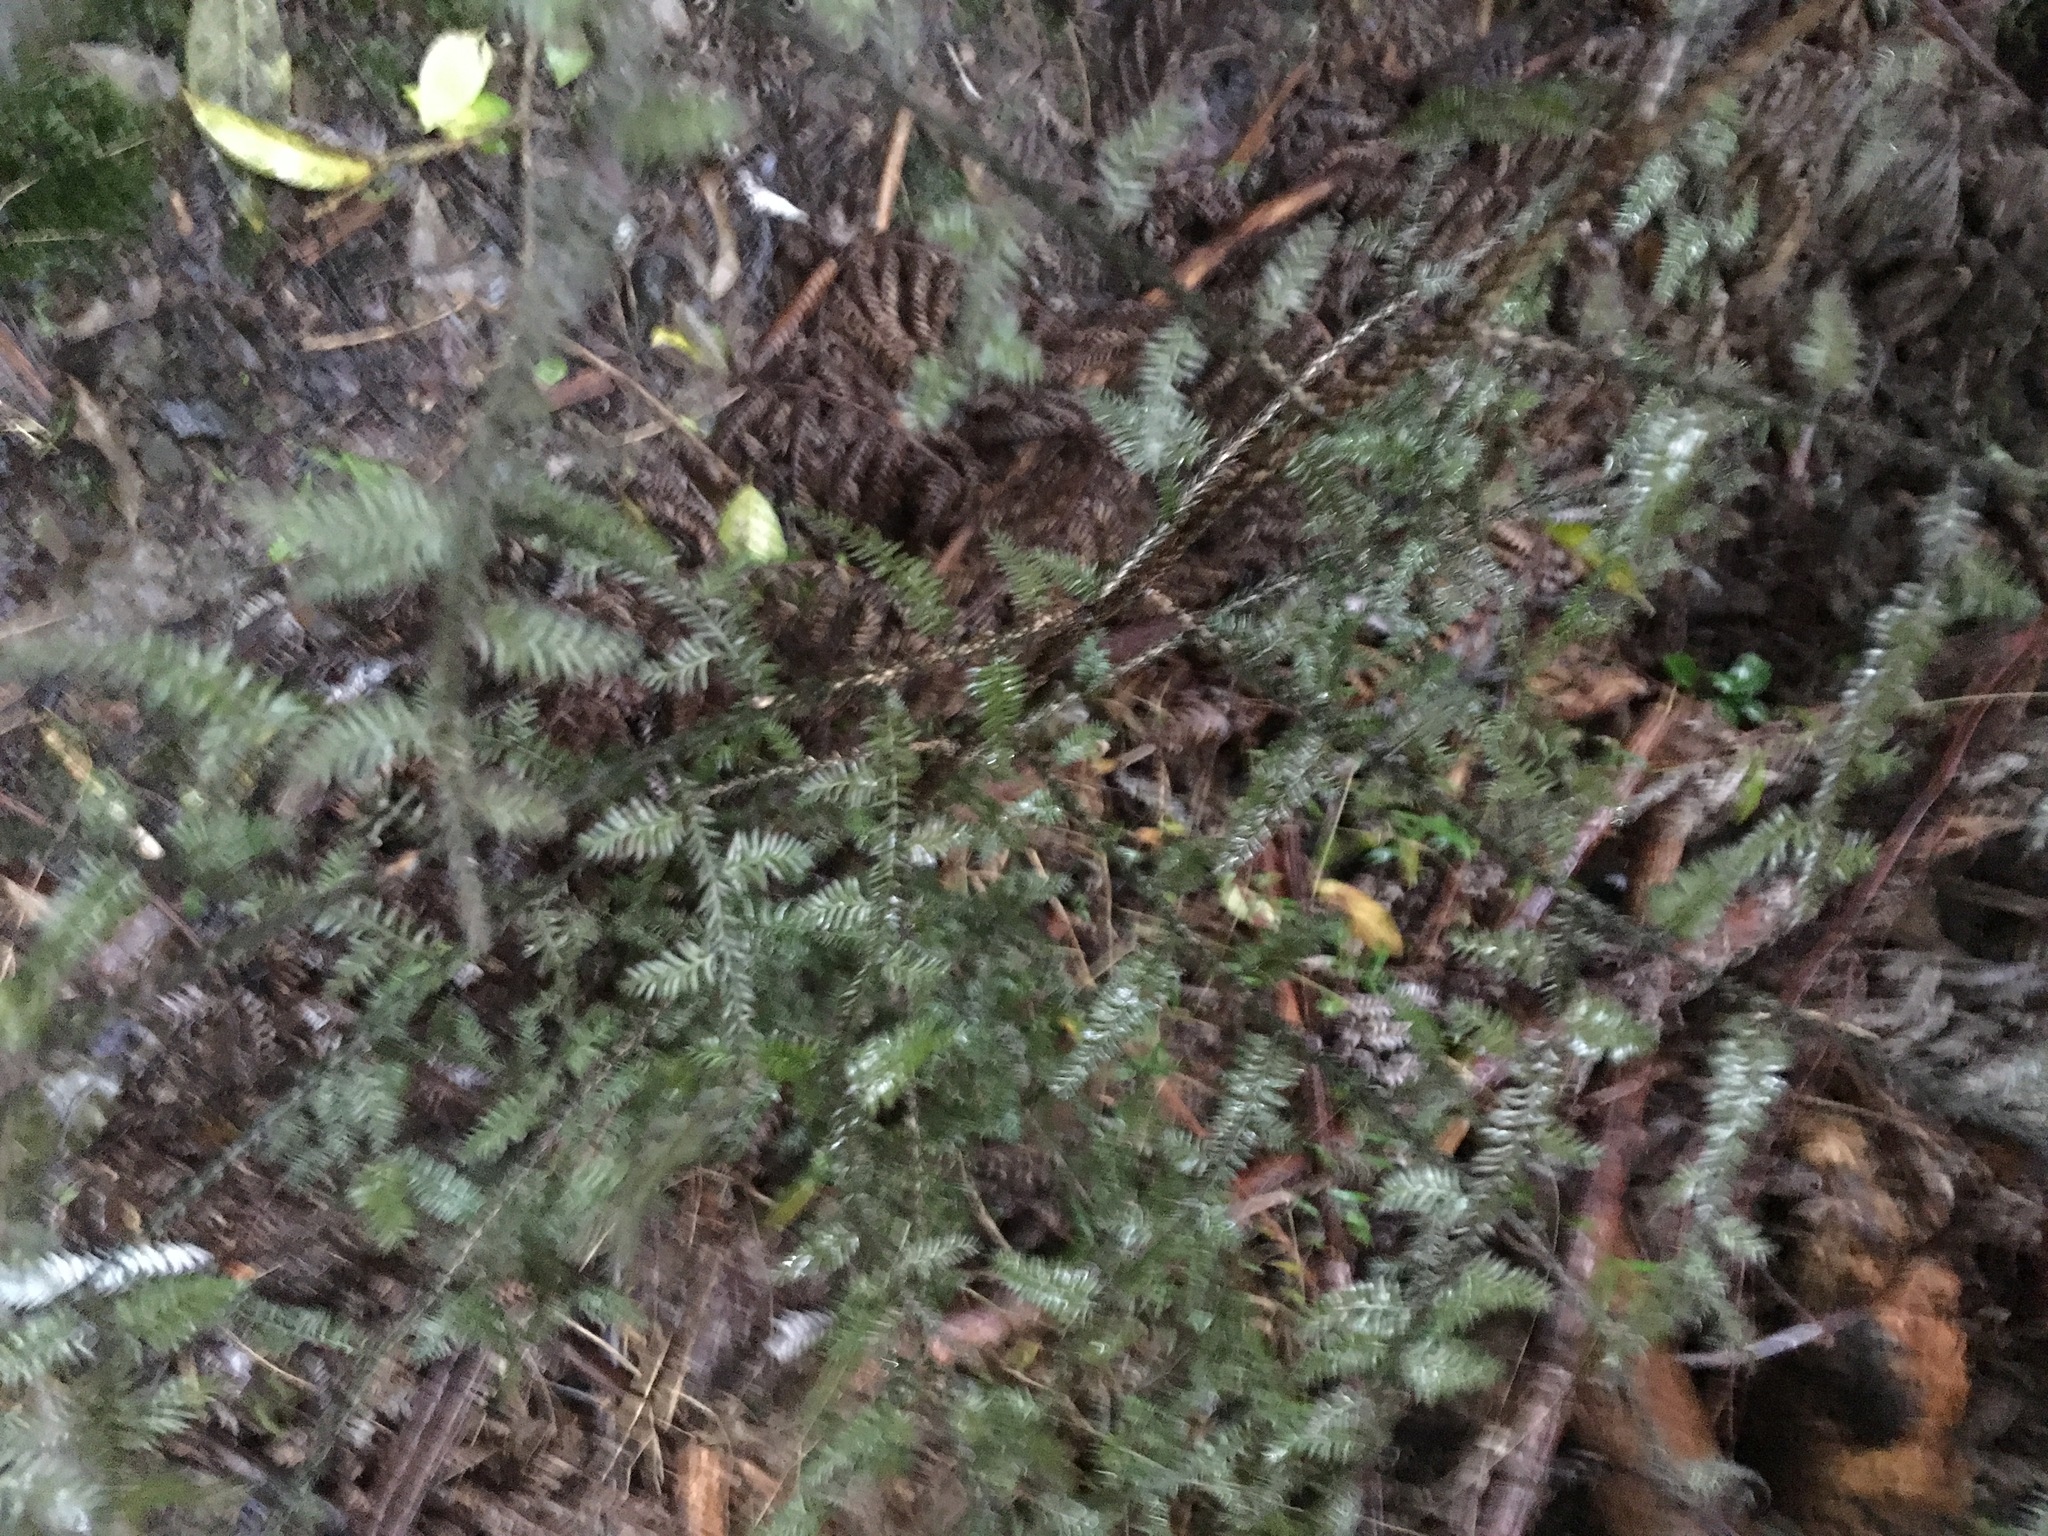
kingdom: Plantae
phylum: Tracheophyta
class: Pinopsida
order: Pinales
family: Podocarpaceae
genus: Dacrycarpus
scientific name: Dacrycarpus dacrydioides
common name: White pine
